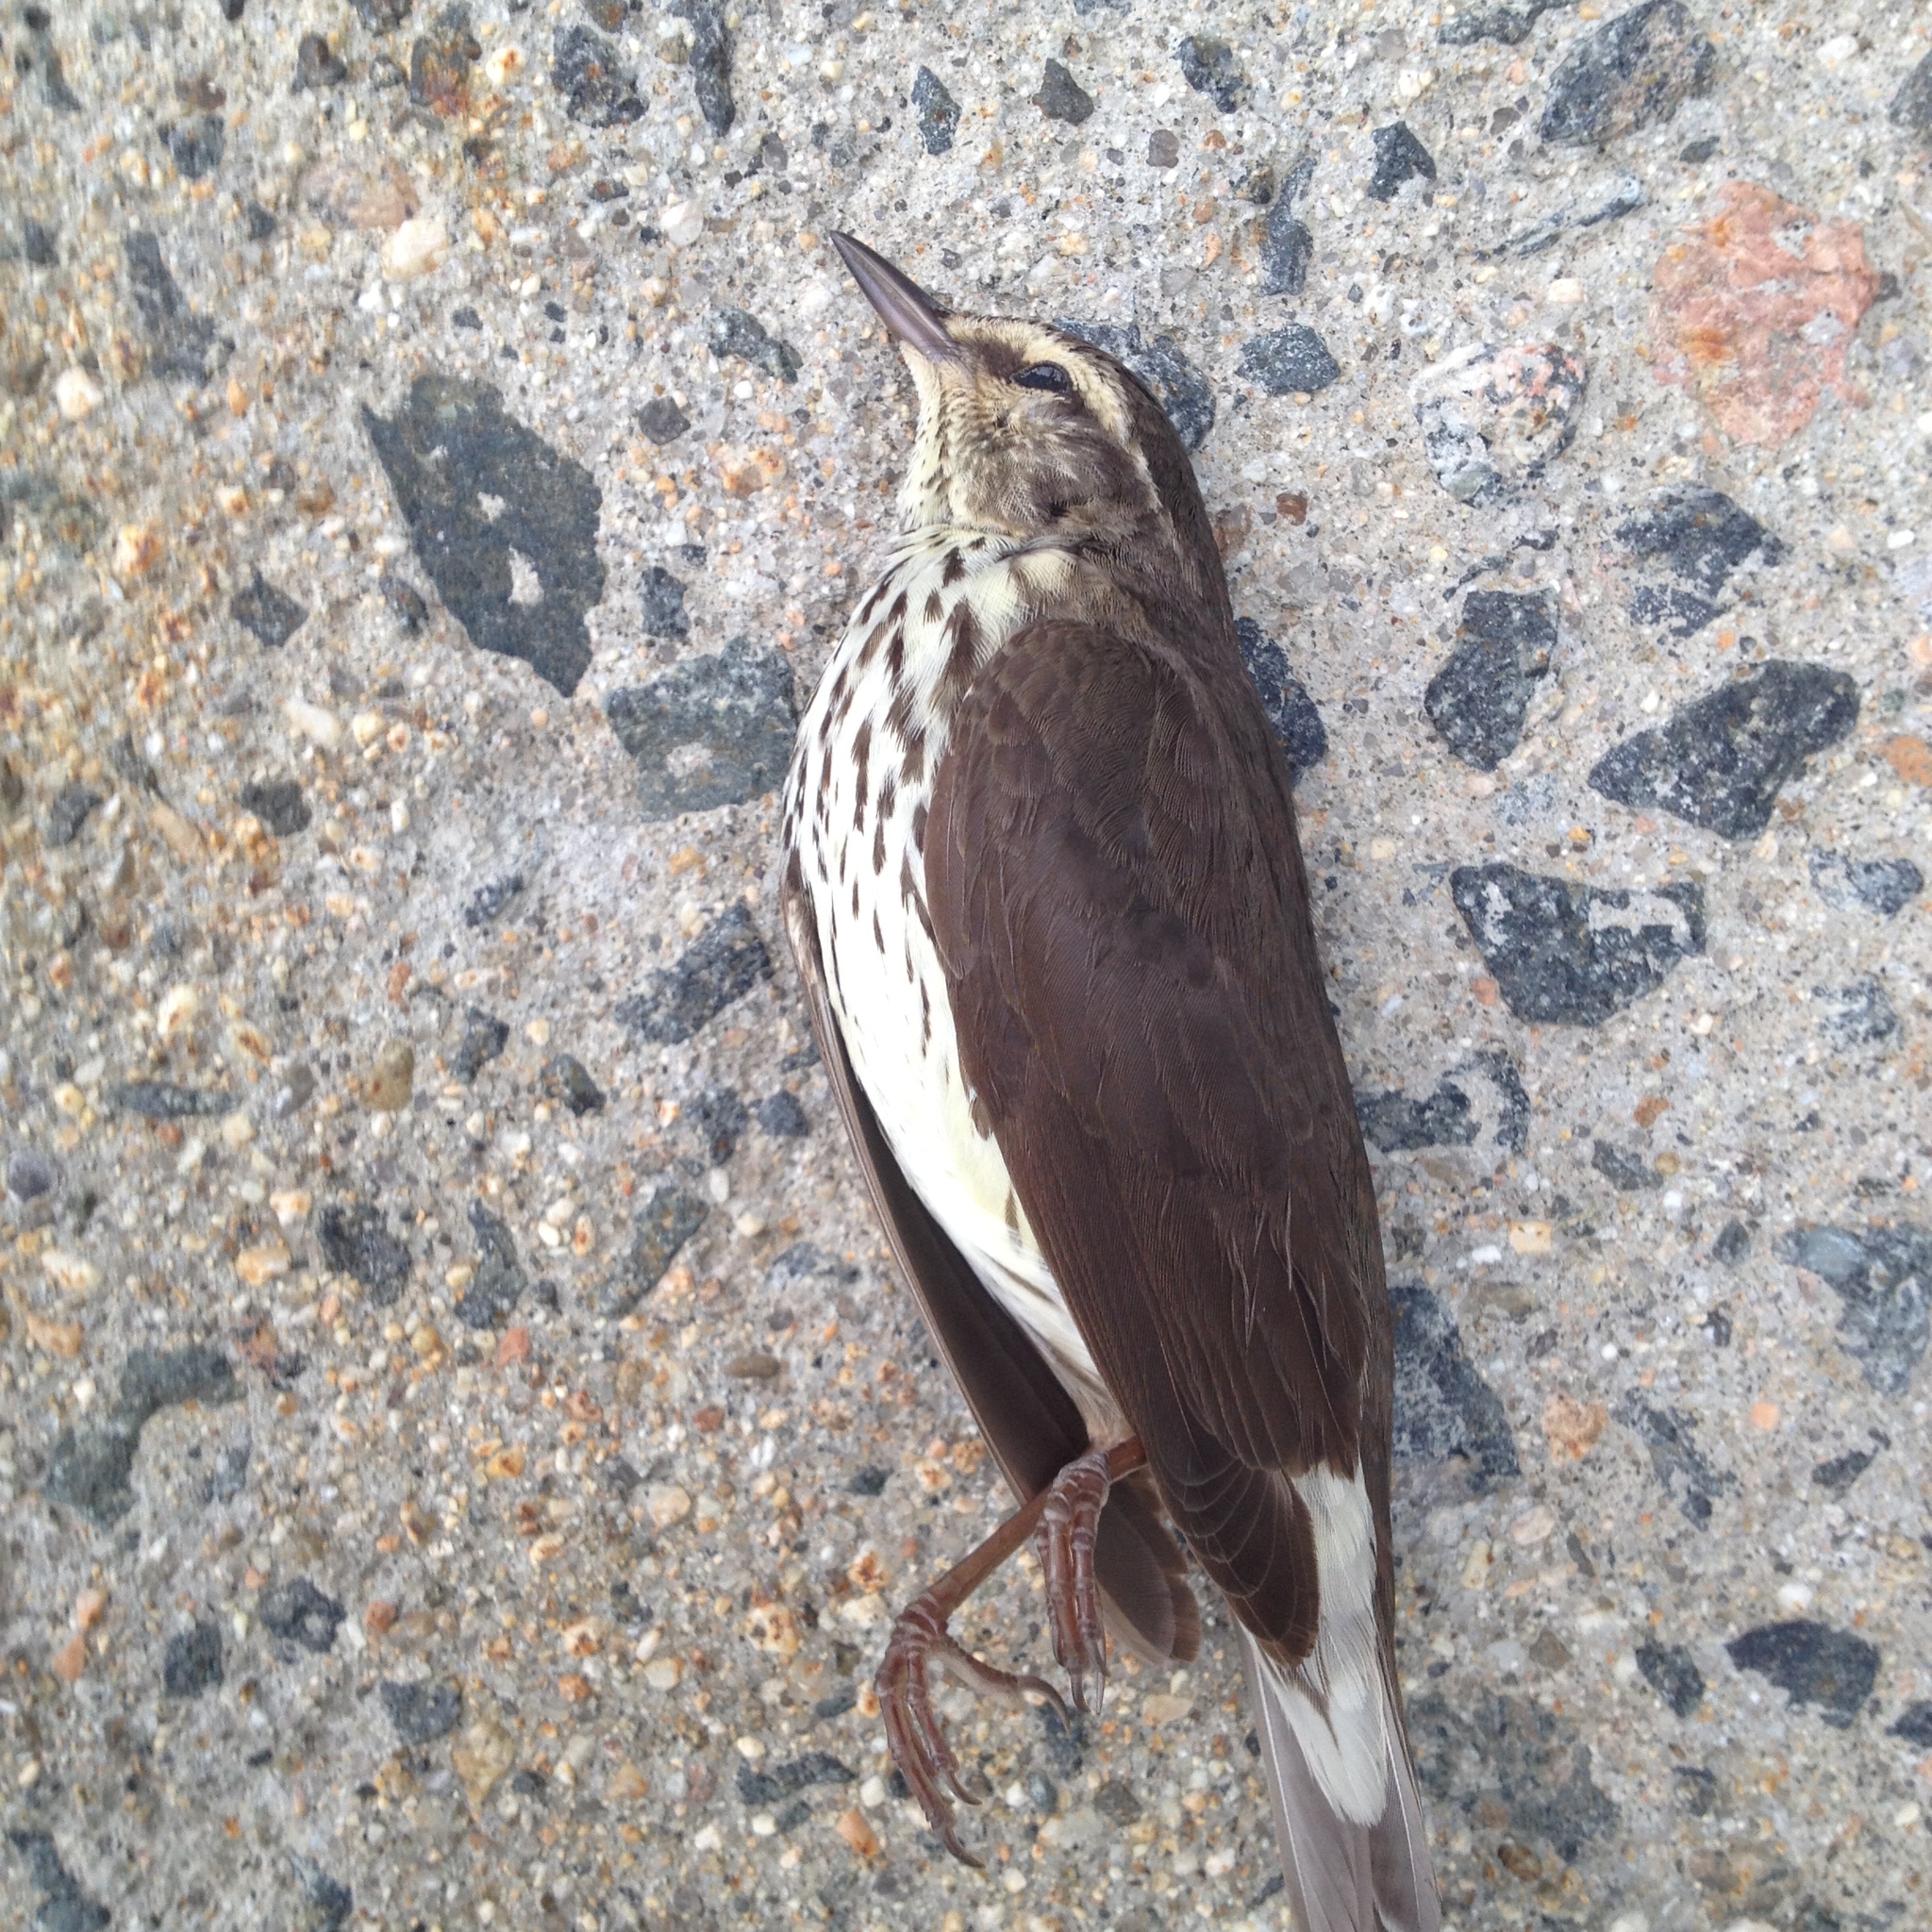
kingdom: Animalia
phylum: Chordata
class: Aves
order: Passeriformes
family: Parulidae
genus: Parkesia
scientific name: Parkesia noveboracensis
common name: Northern waterthrush
